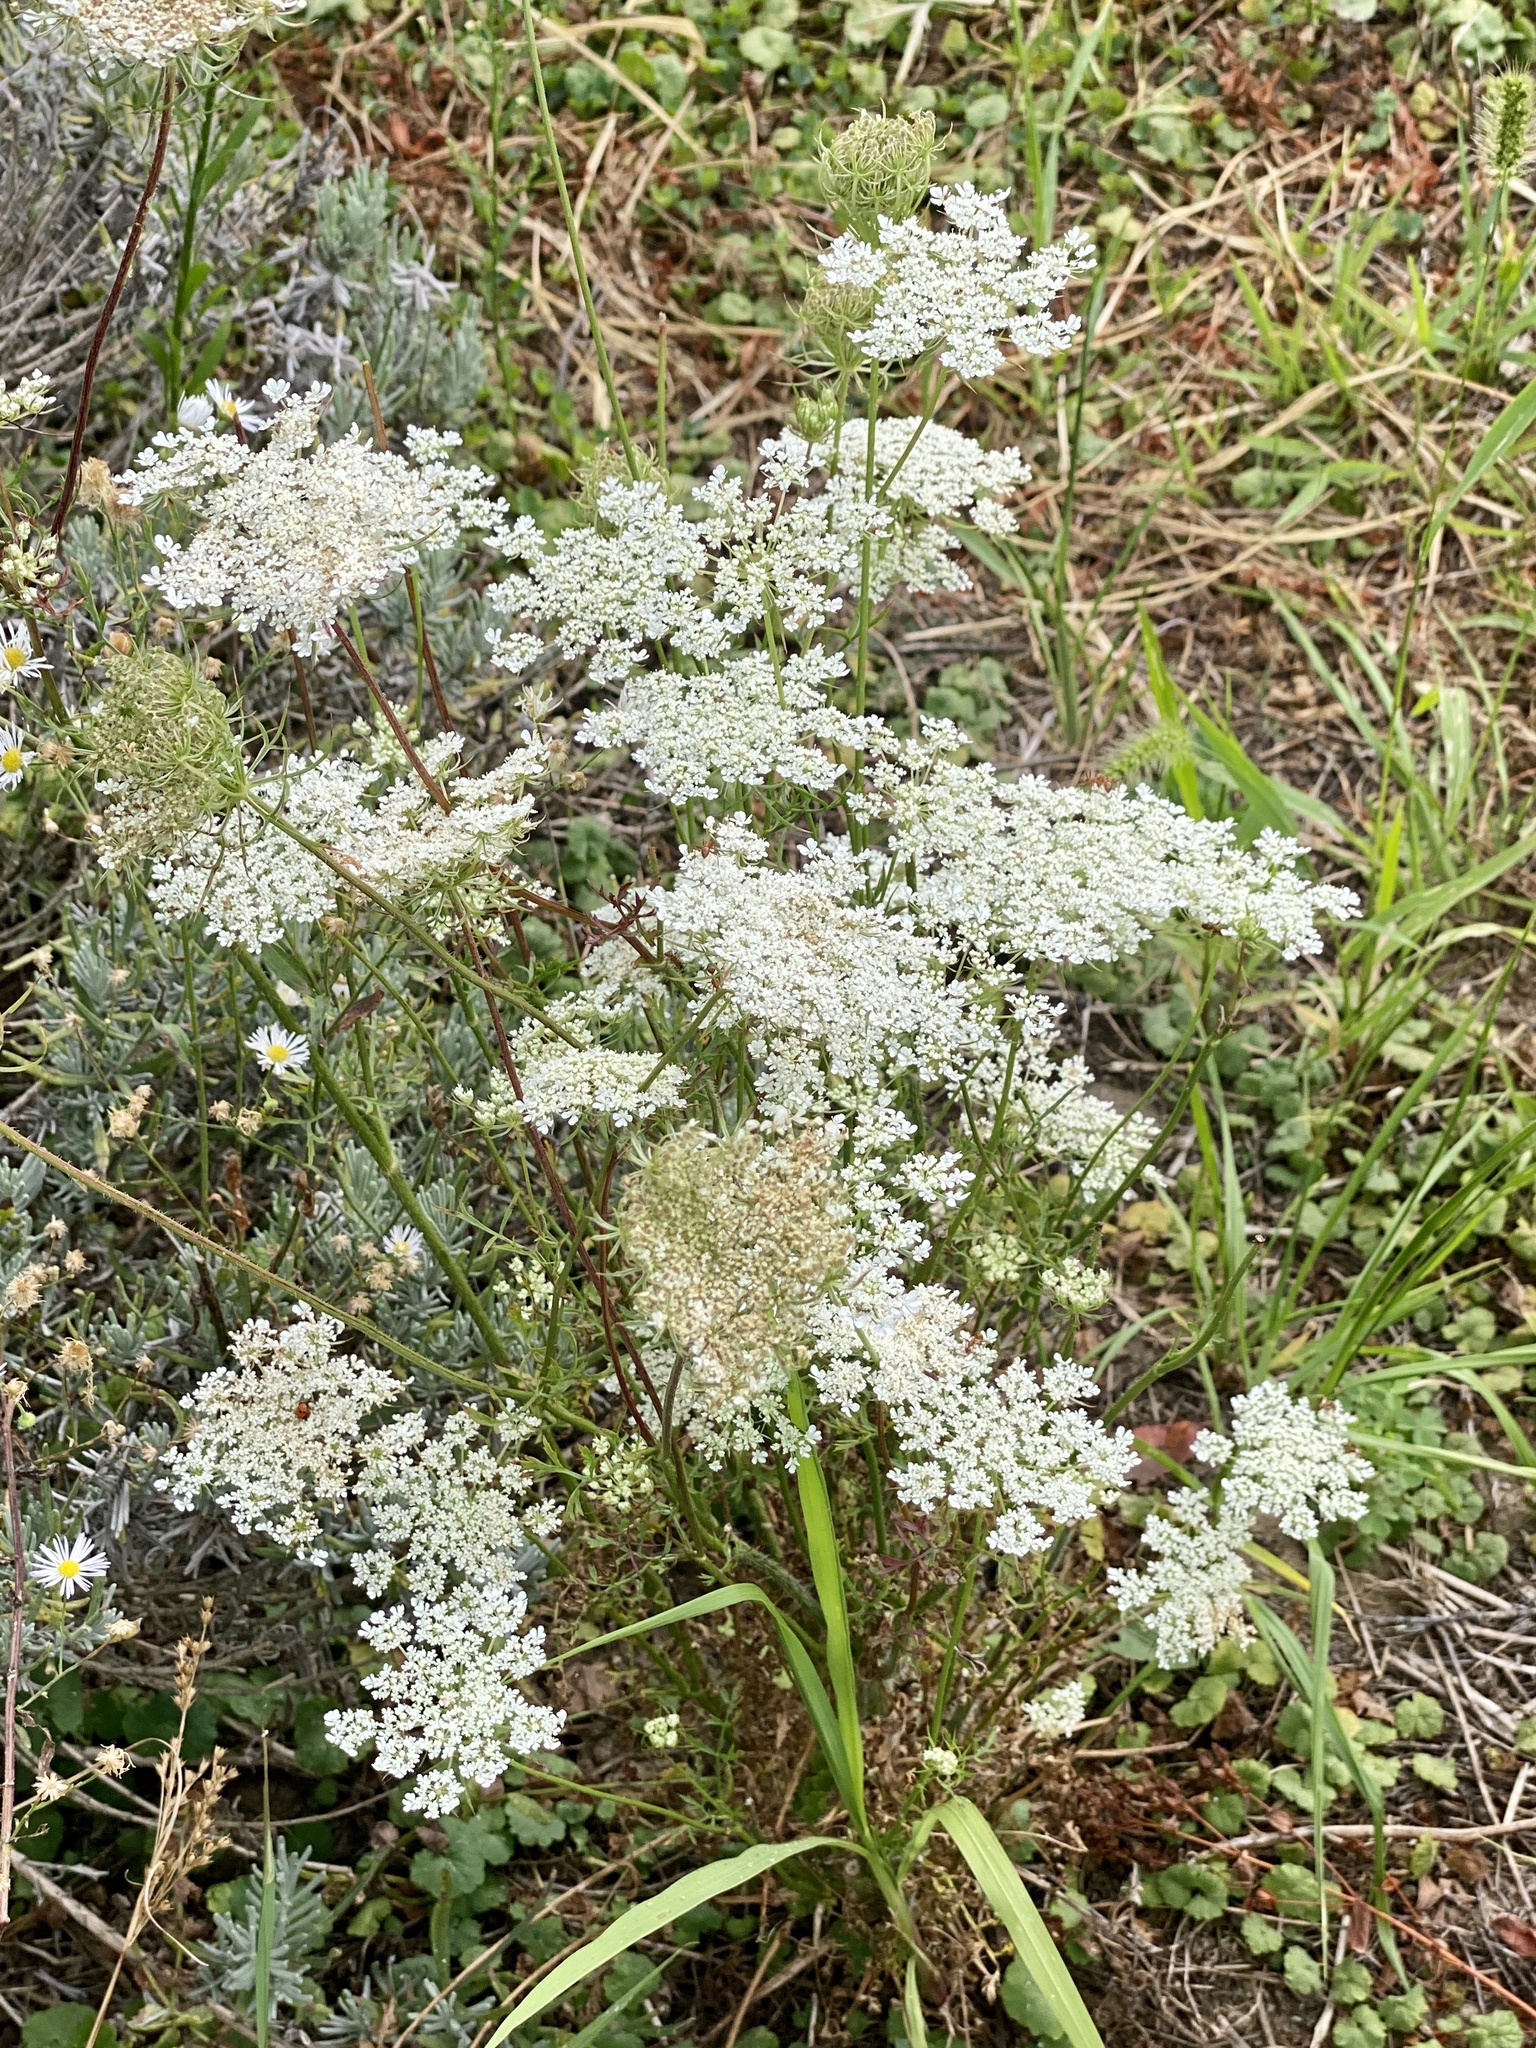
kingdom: Plantae
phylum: Tracheophyta
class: Magnoliopsida
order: Apiales
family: Apiaceae
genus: Daucus
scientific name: Daucus carota
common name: Wild carrot
